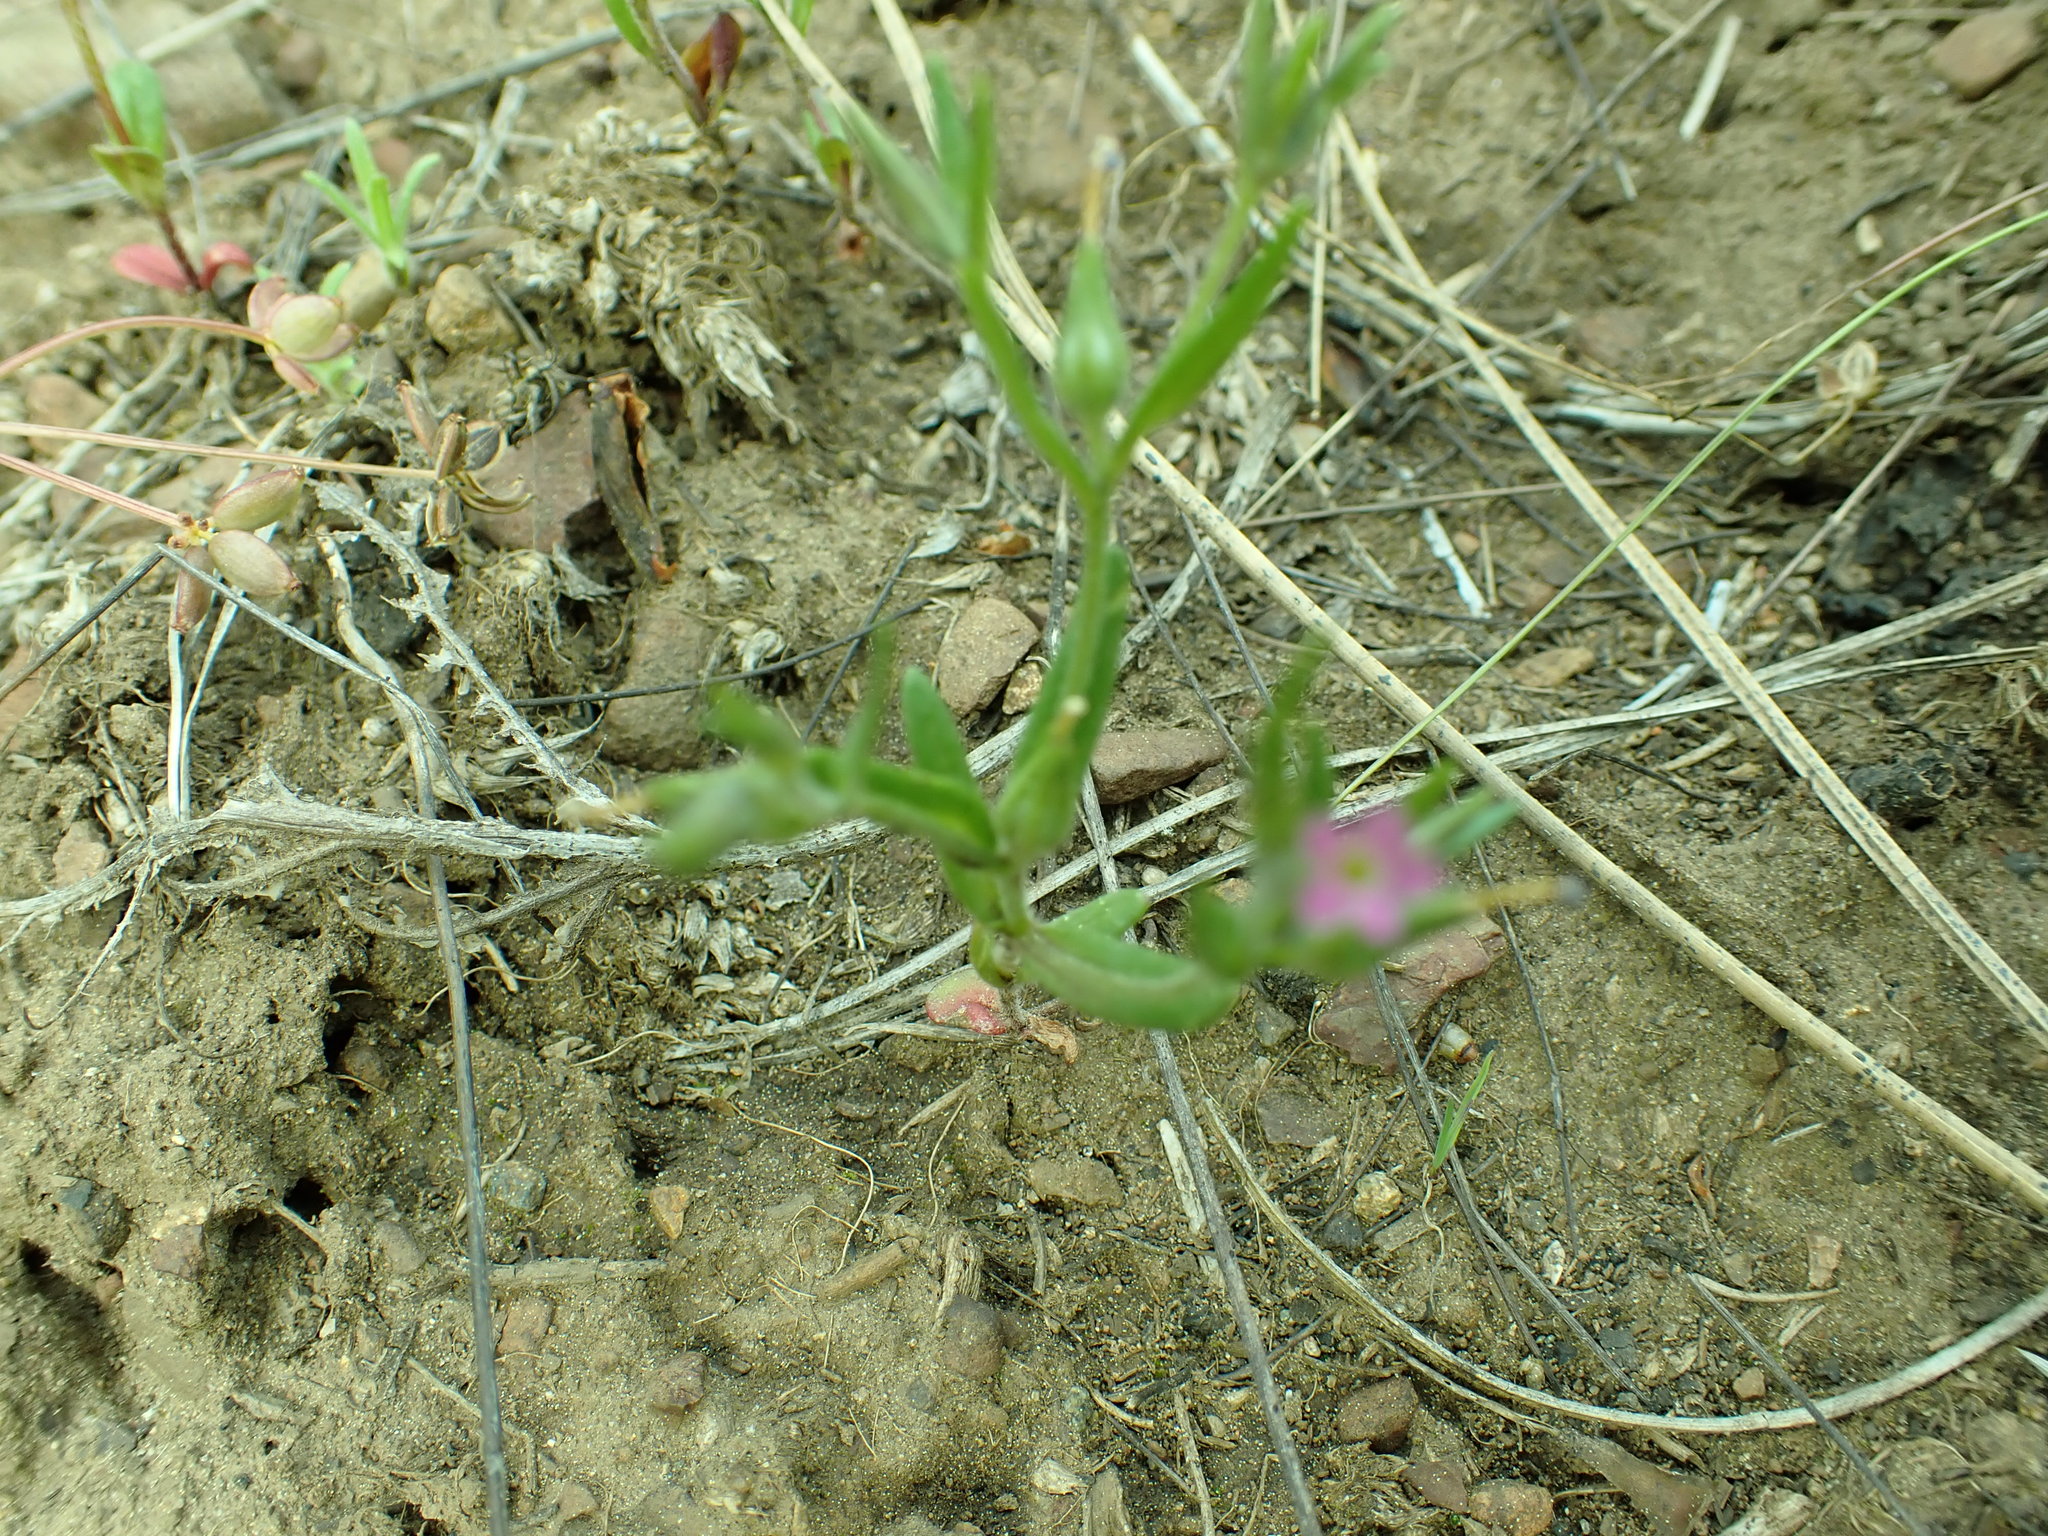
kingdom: Plantae
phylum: Tracheophyta
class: Magnoliopsida
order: Ericales
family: Polemoniaceae
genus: Phlox
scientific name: Phlox gracilis
